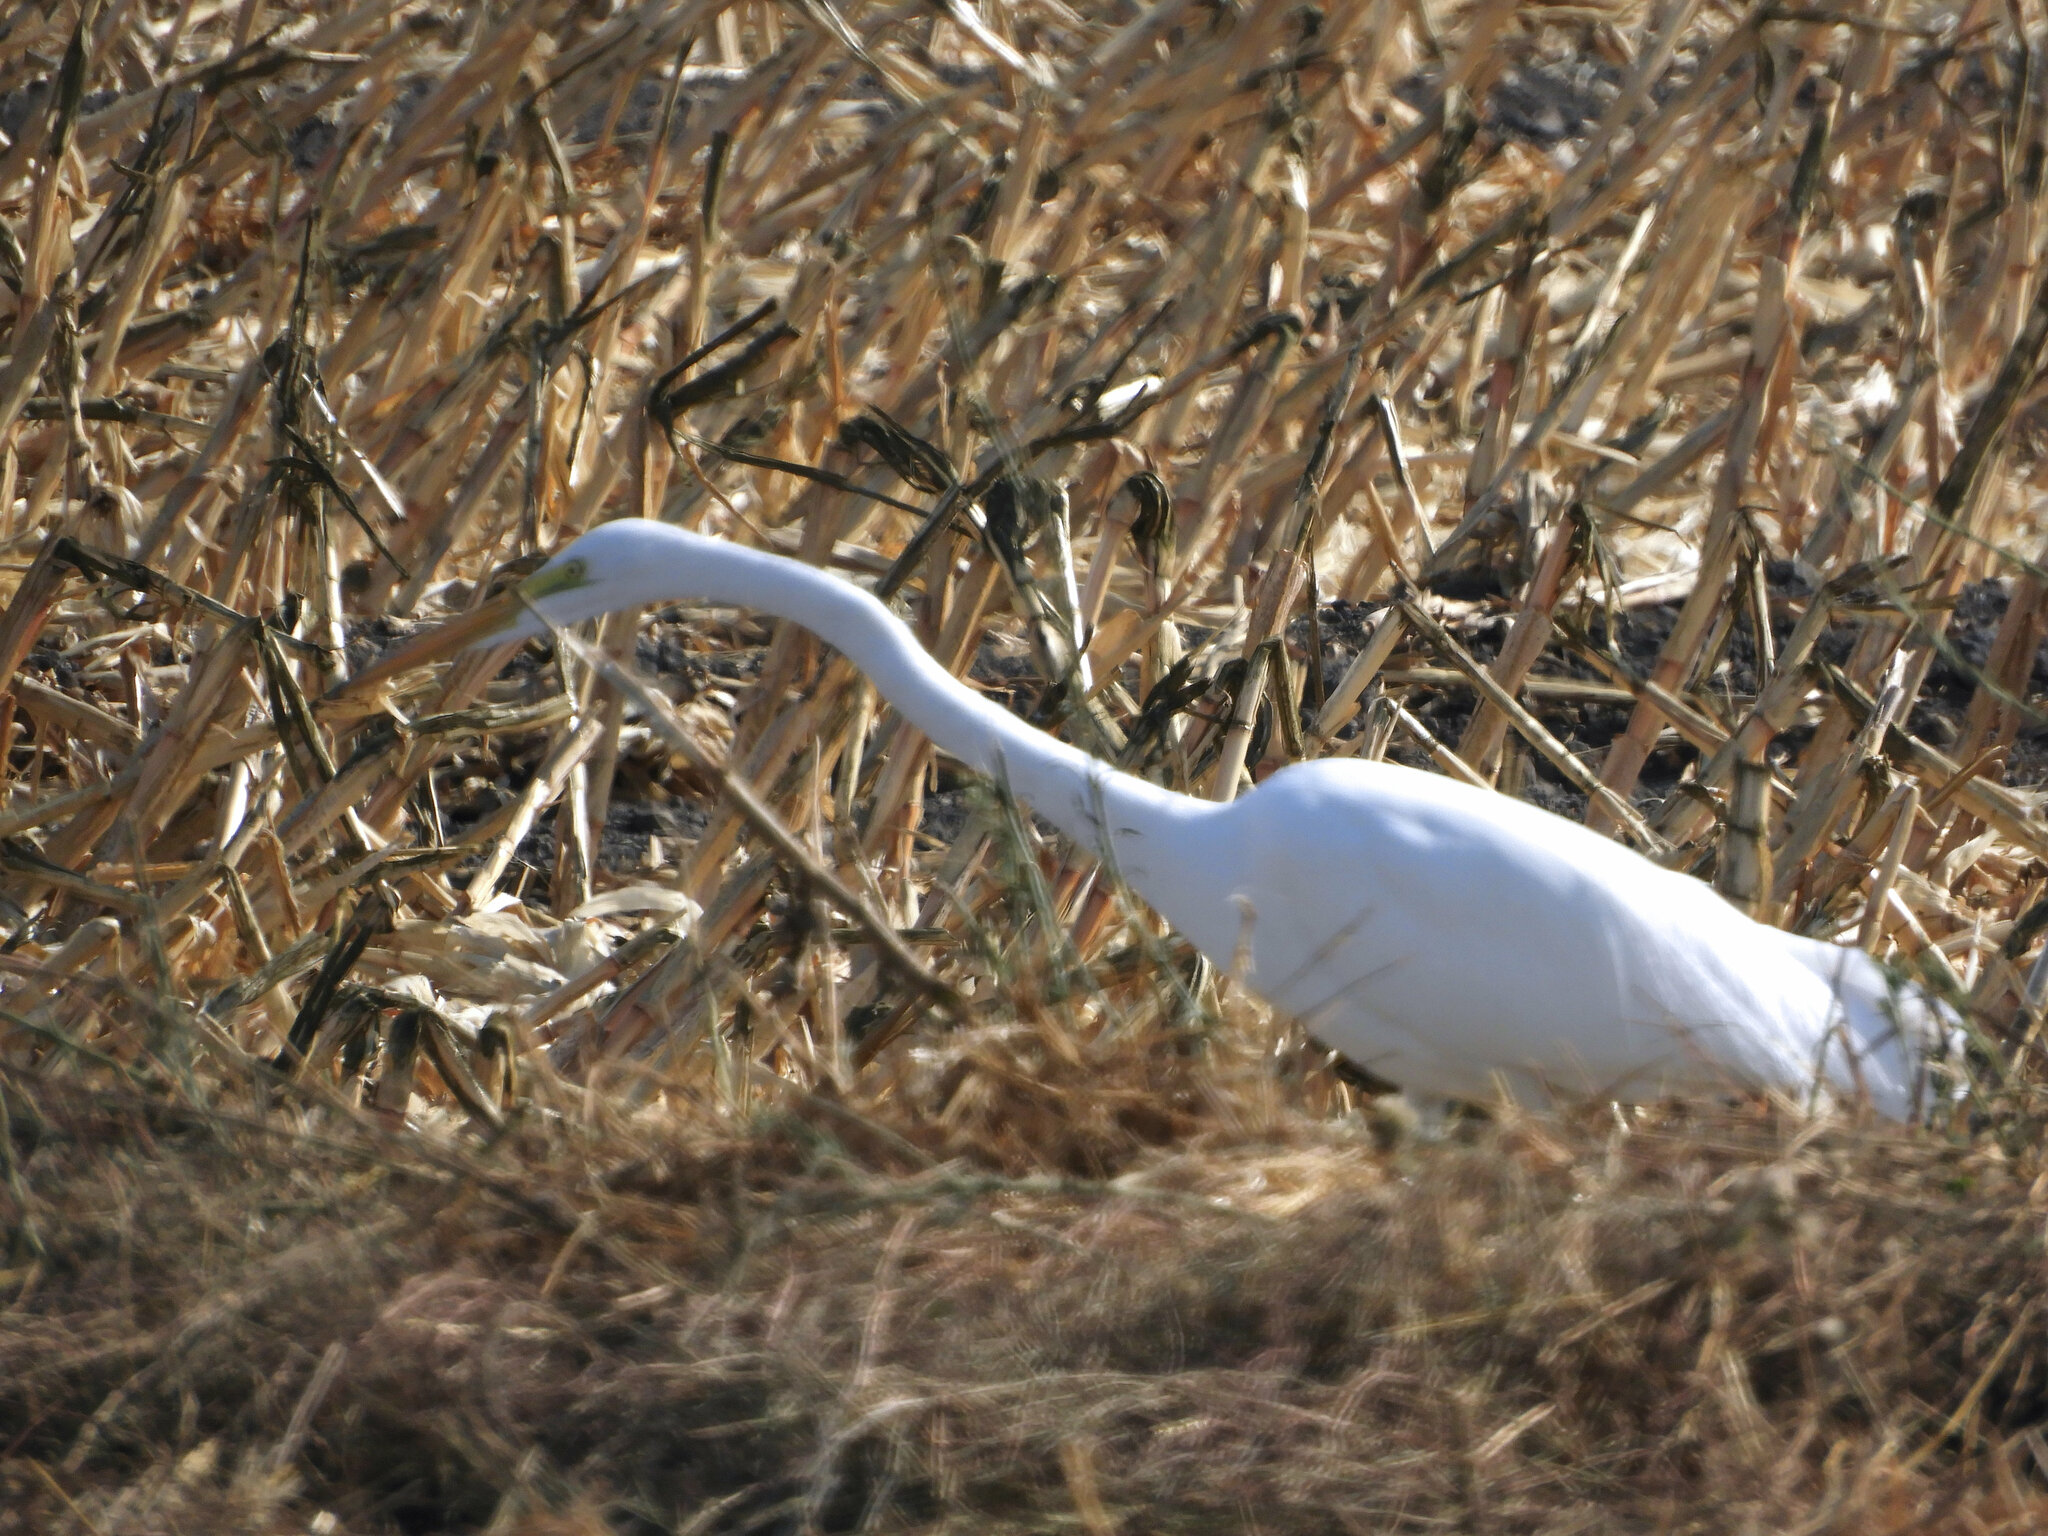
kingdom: Animalia
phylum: Chordata
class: Aves
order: Pelecaniformes
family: Ardeidae
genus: Ardea
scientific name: Ardea alba
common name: Great egret
